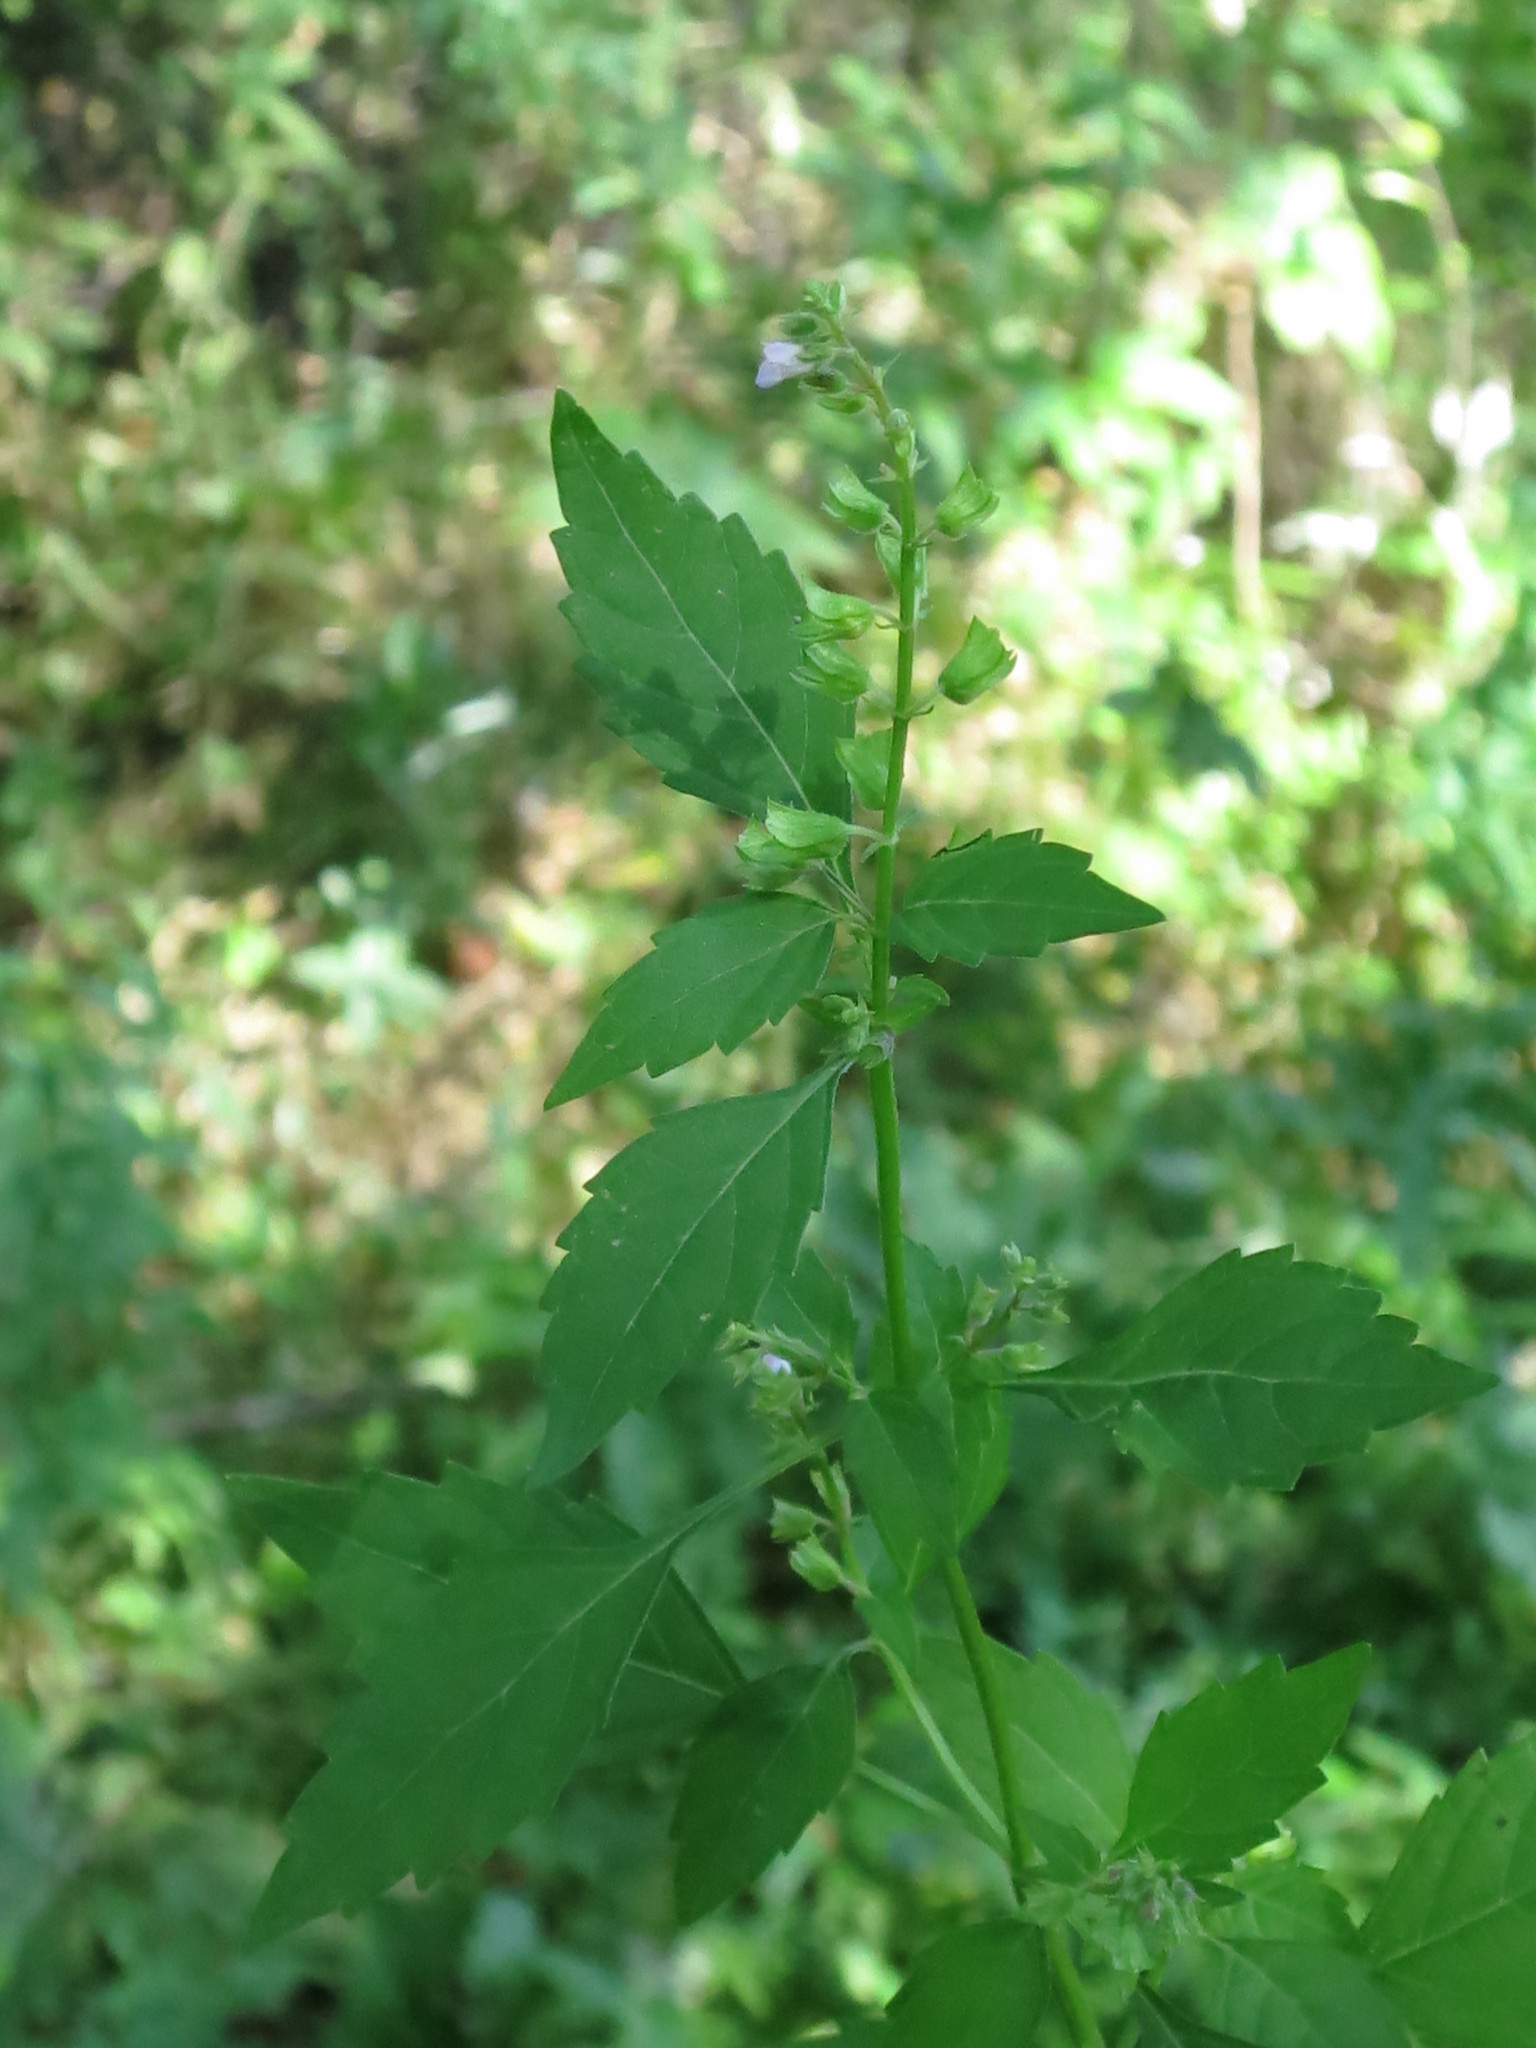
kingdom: Plantae
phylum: Tracheophyta
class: Magnoliopsida
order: Lamiales
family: Lamiaceae
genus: Mosla
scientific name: Mosla dianthera
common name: Miniature beefsteakplant
